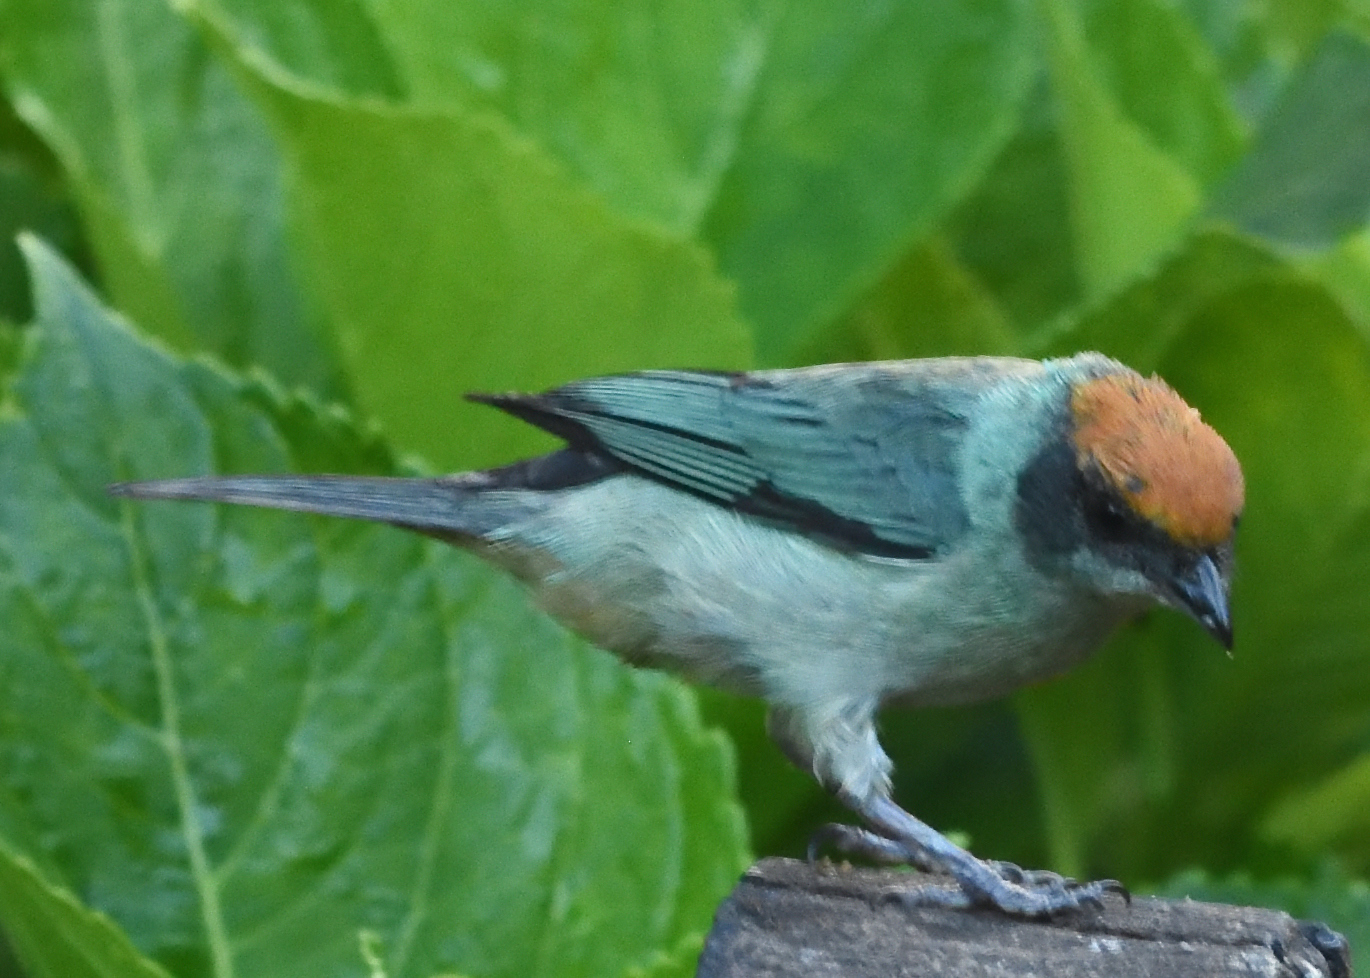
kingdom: Animalia
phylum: Chordata
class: Aves
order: Passeriformes
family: Thraupidae
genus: Stilpnia
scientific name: Stilpnia vitriolina
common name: Scrub tanager
